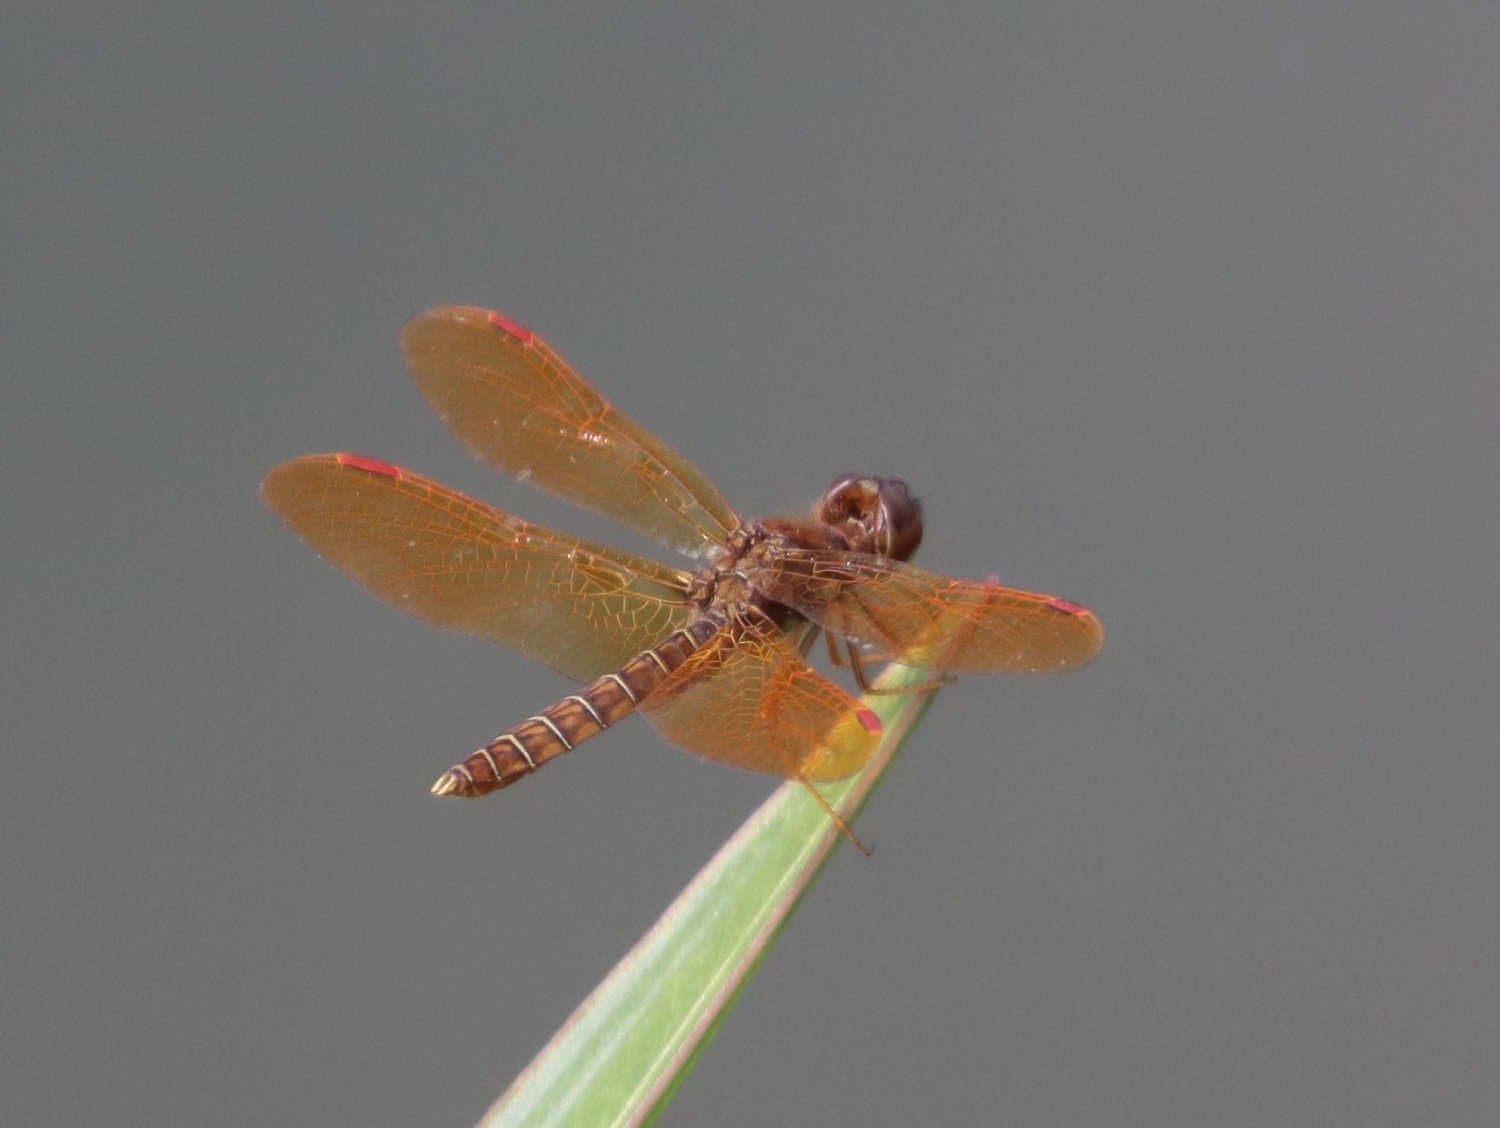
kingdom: Animalia
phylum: Arthropoda
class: Insecta
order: Odonata
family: Libellulidae
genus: Perithemis
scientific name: Perithemis tenera
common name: Eastern amberwing
